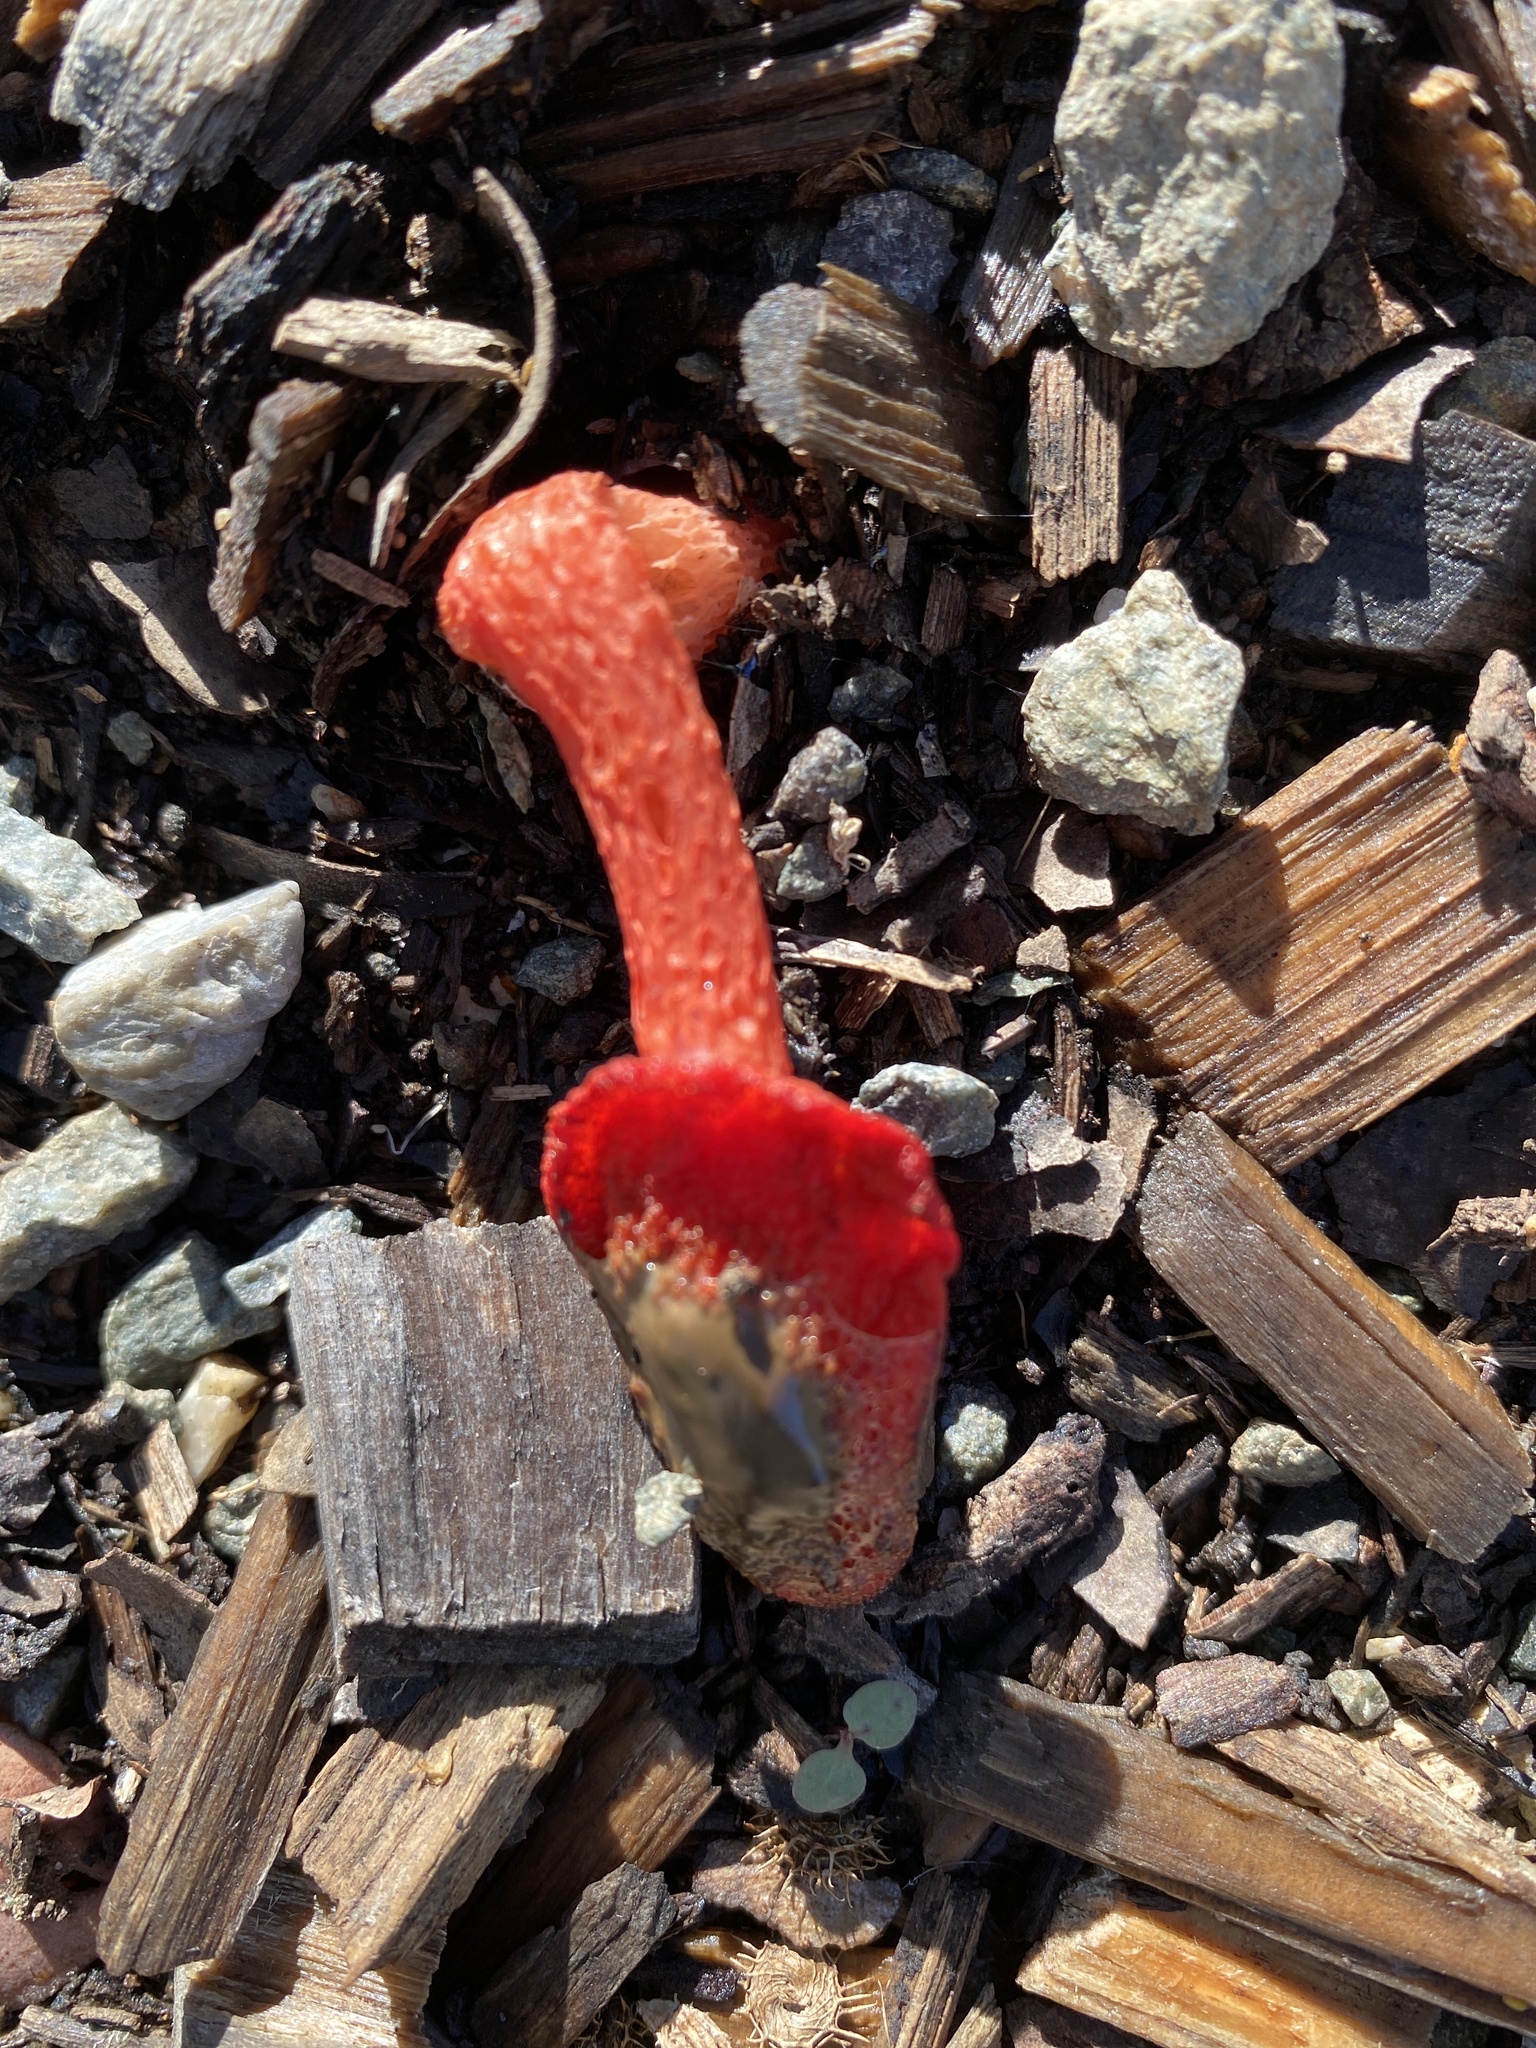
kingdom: Fungi
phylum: Basidiomycota
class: Agaricomycetes
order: Phallales
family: Phallaceae
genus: Phallus
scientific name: Phallus rubicundus
